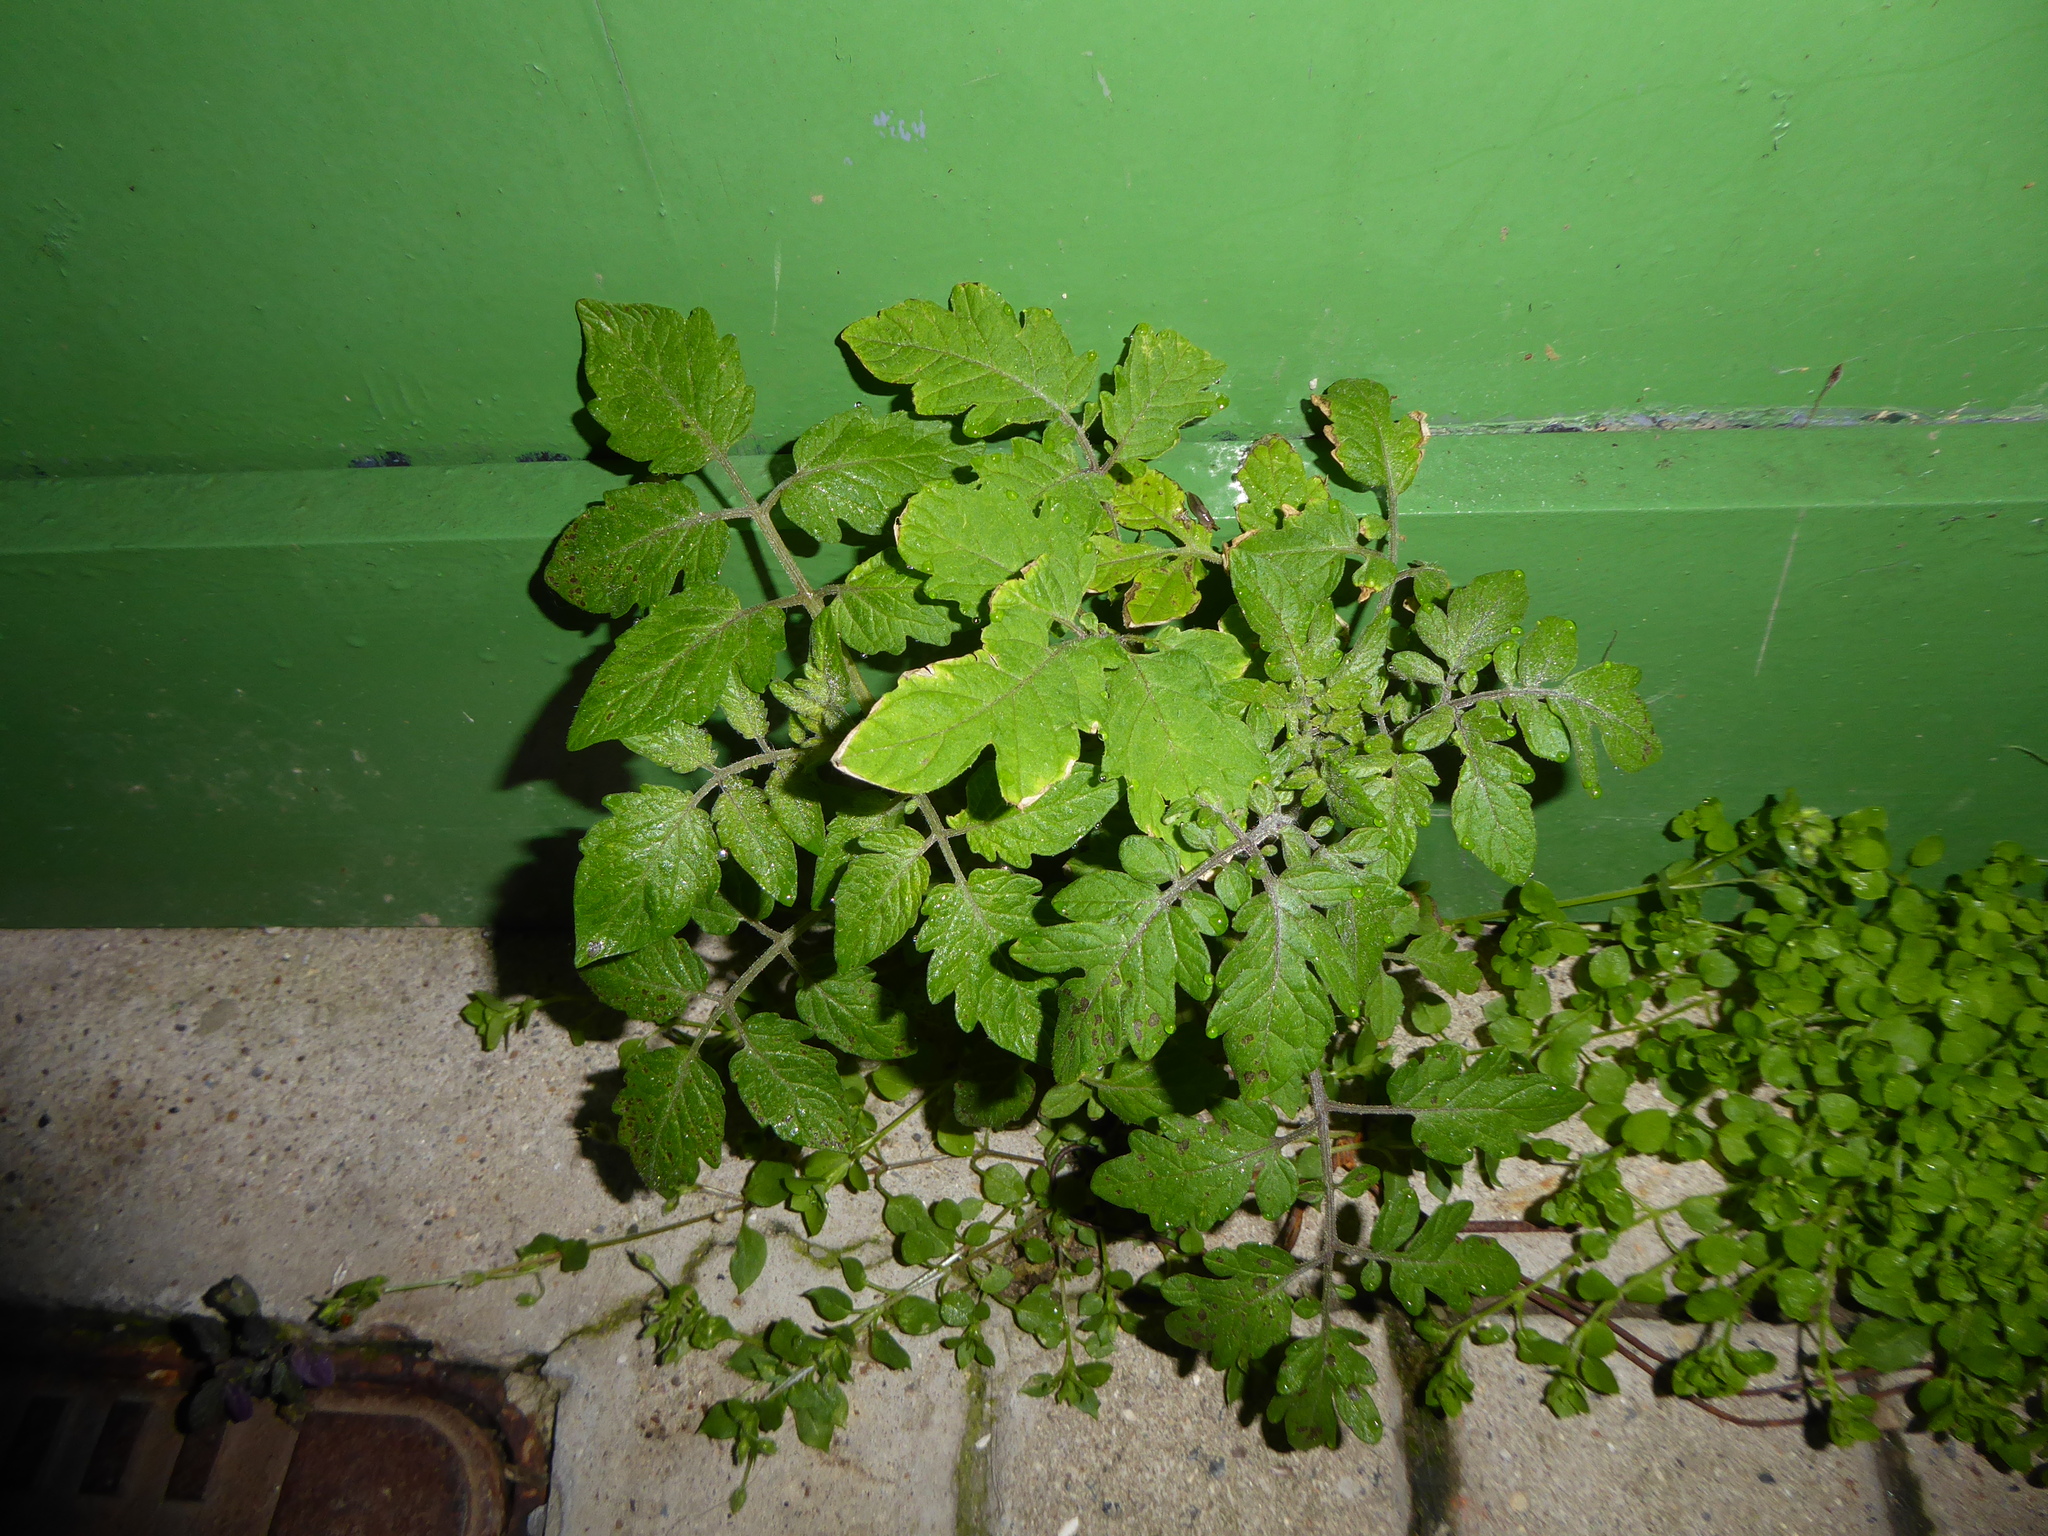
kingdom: Plantae
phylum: Tracheophyta
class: Magnoliopsida
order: Solanales
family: Solanaceae
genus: Solanum
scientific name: Solanum lycopersicum
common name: Garden tomato
